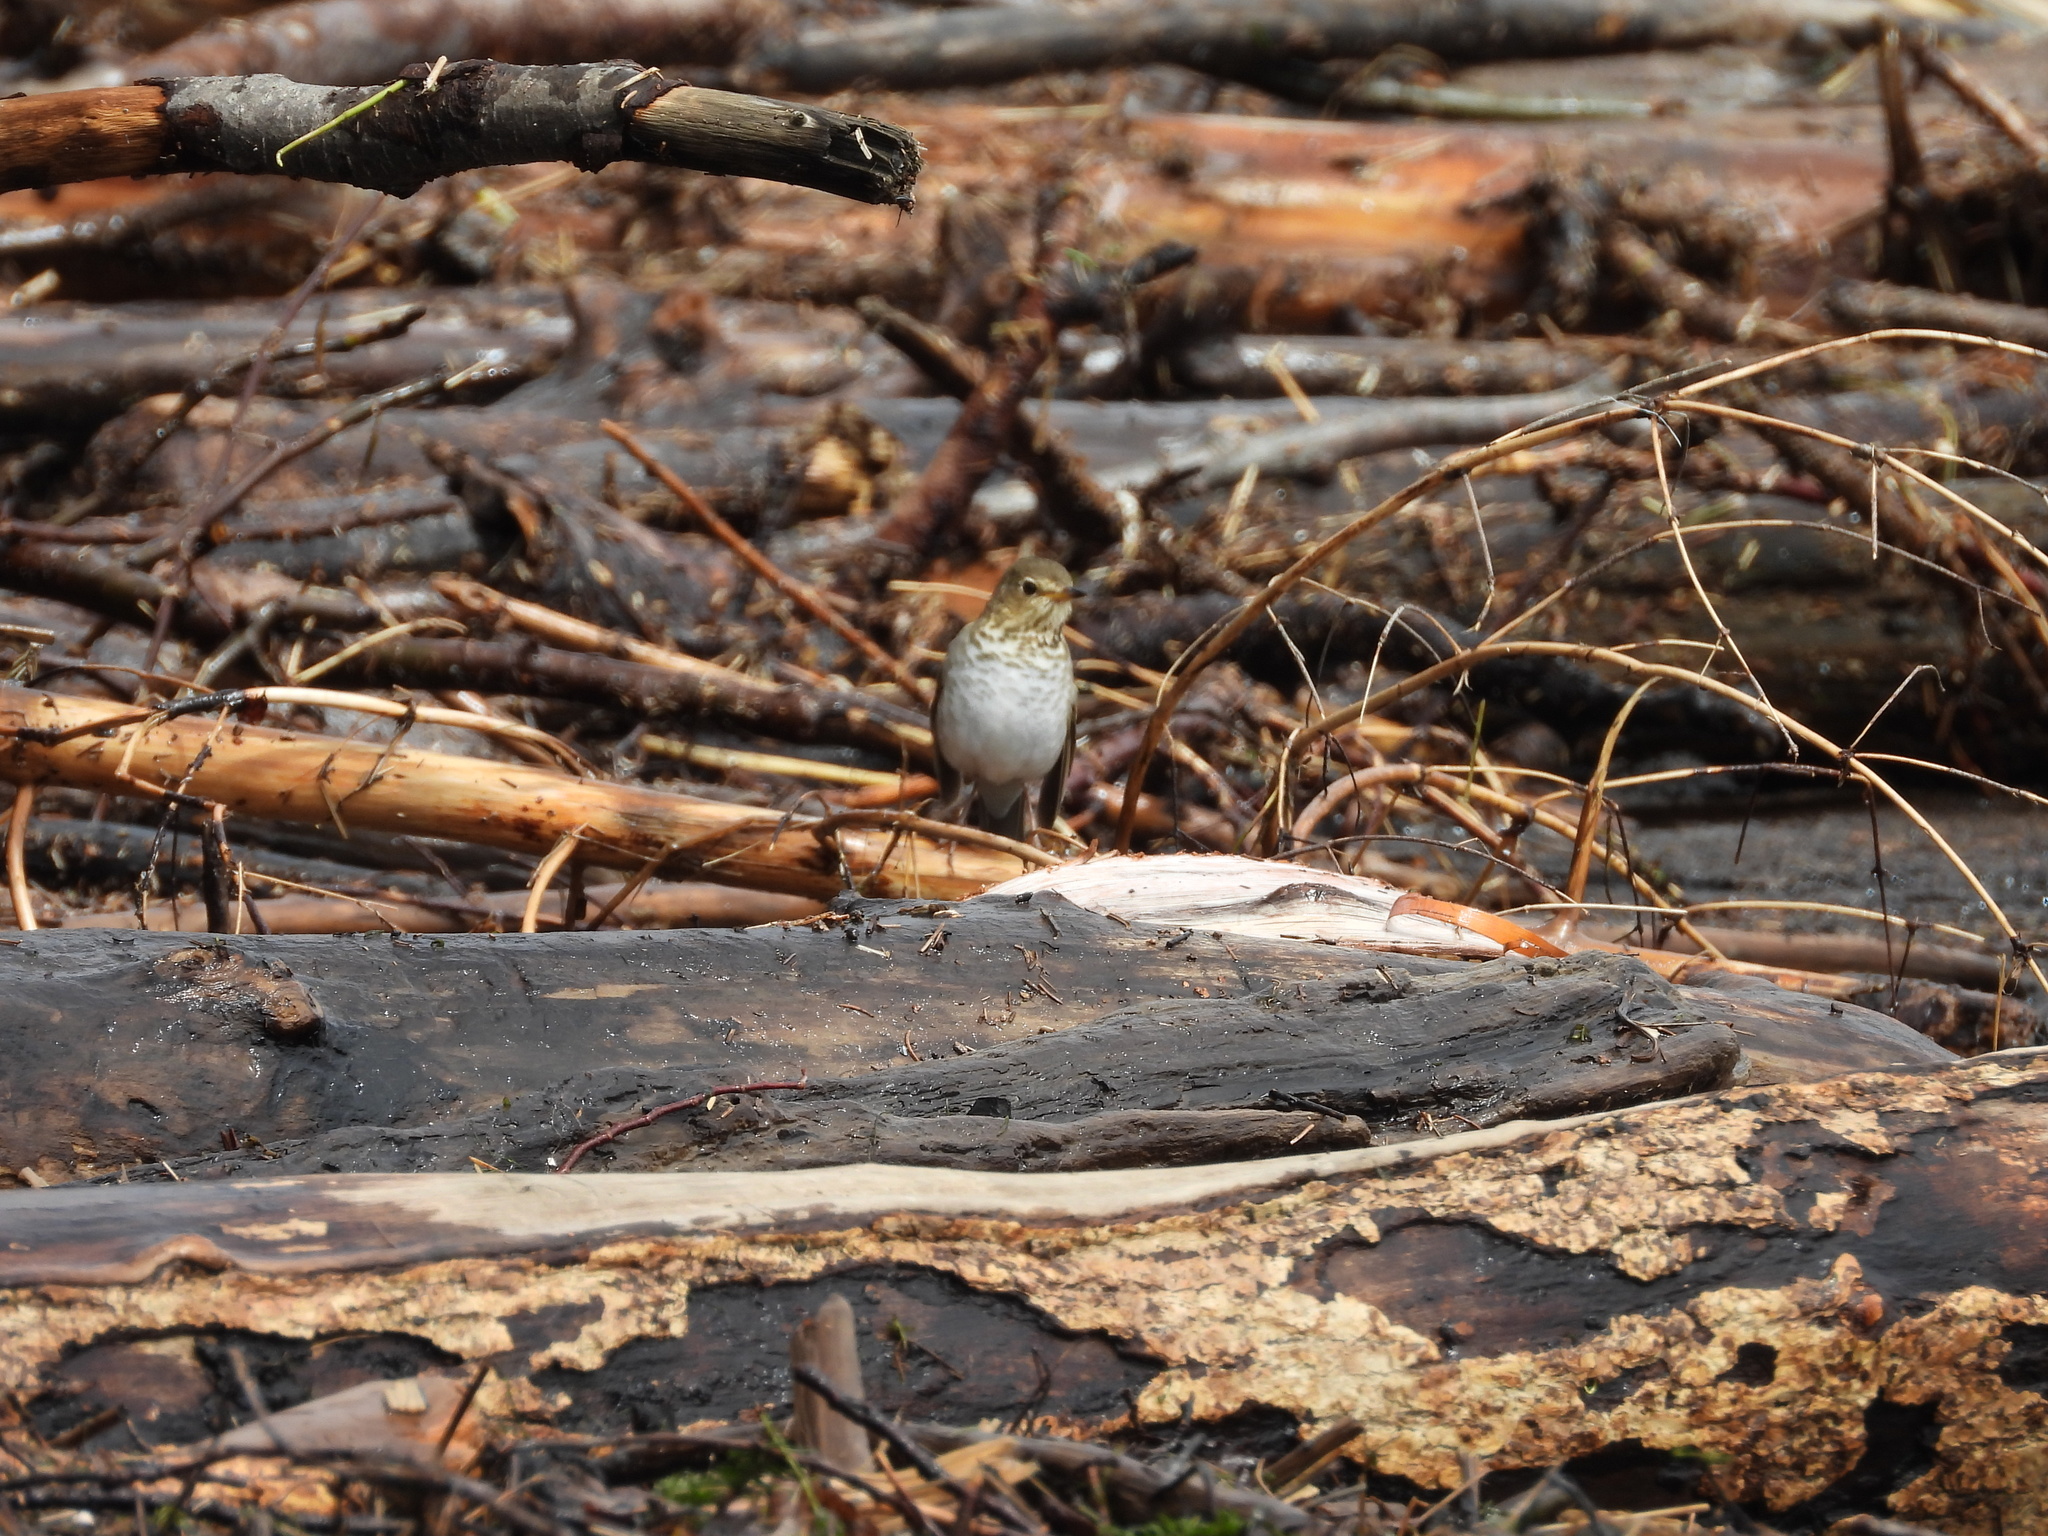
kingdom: Animalia
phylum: Chordata
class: Aves
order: Passeriformes
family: Turdidae
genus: Catharus
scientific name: Catharus ustulatus
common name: Swainson's thrush
